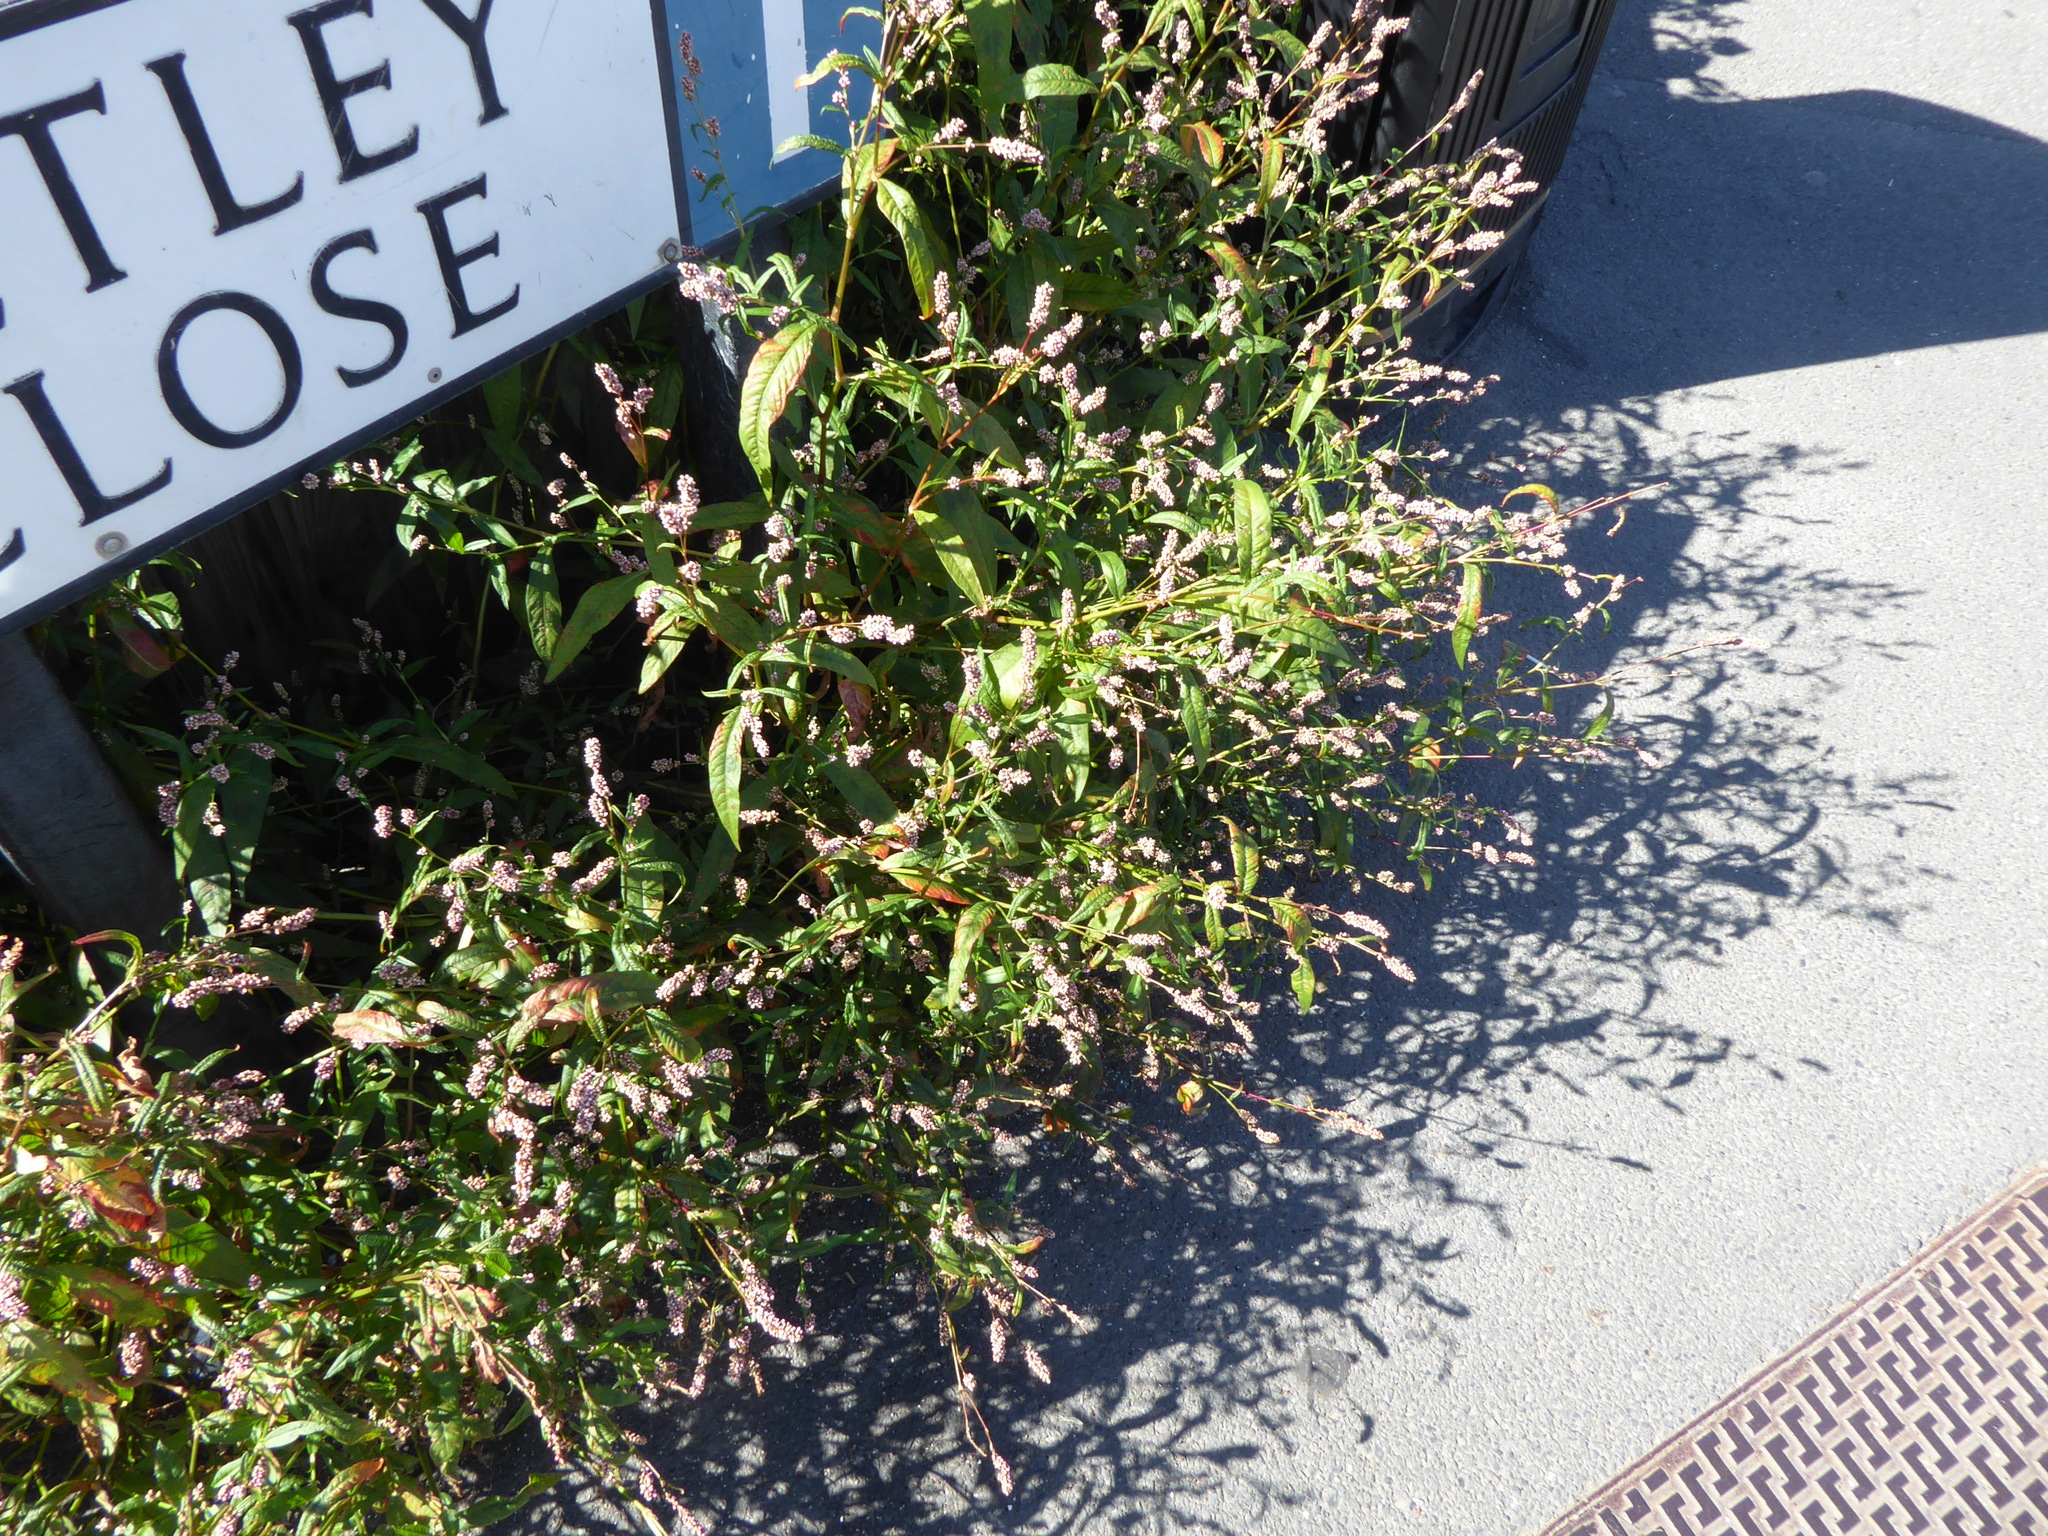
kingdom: Plantae
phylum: Tracheophyta
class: Magnoliopsida
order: Caryophyllales
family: Polygonaceae
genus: Persicaria
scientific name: Persicaria maculosa
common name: Redshank
